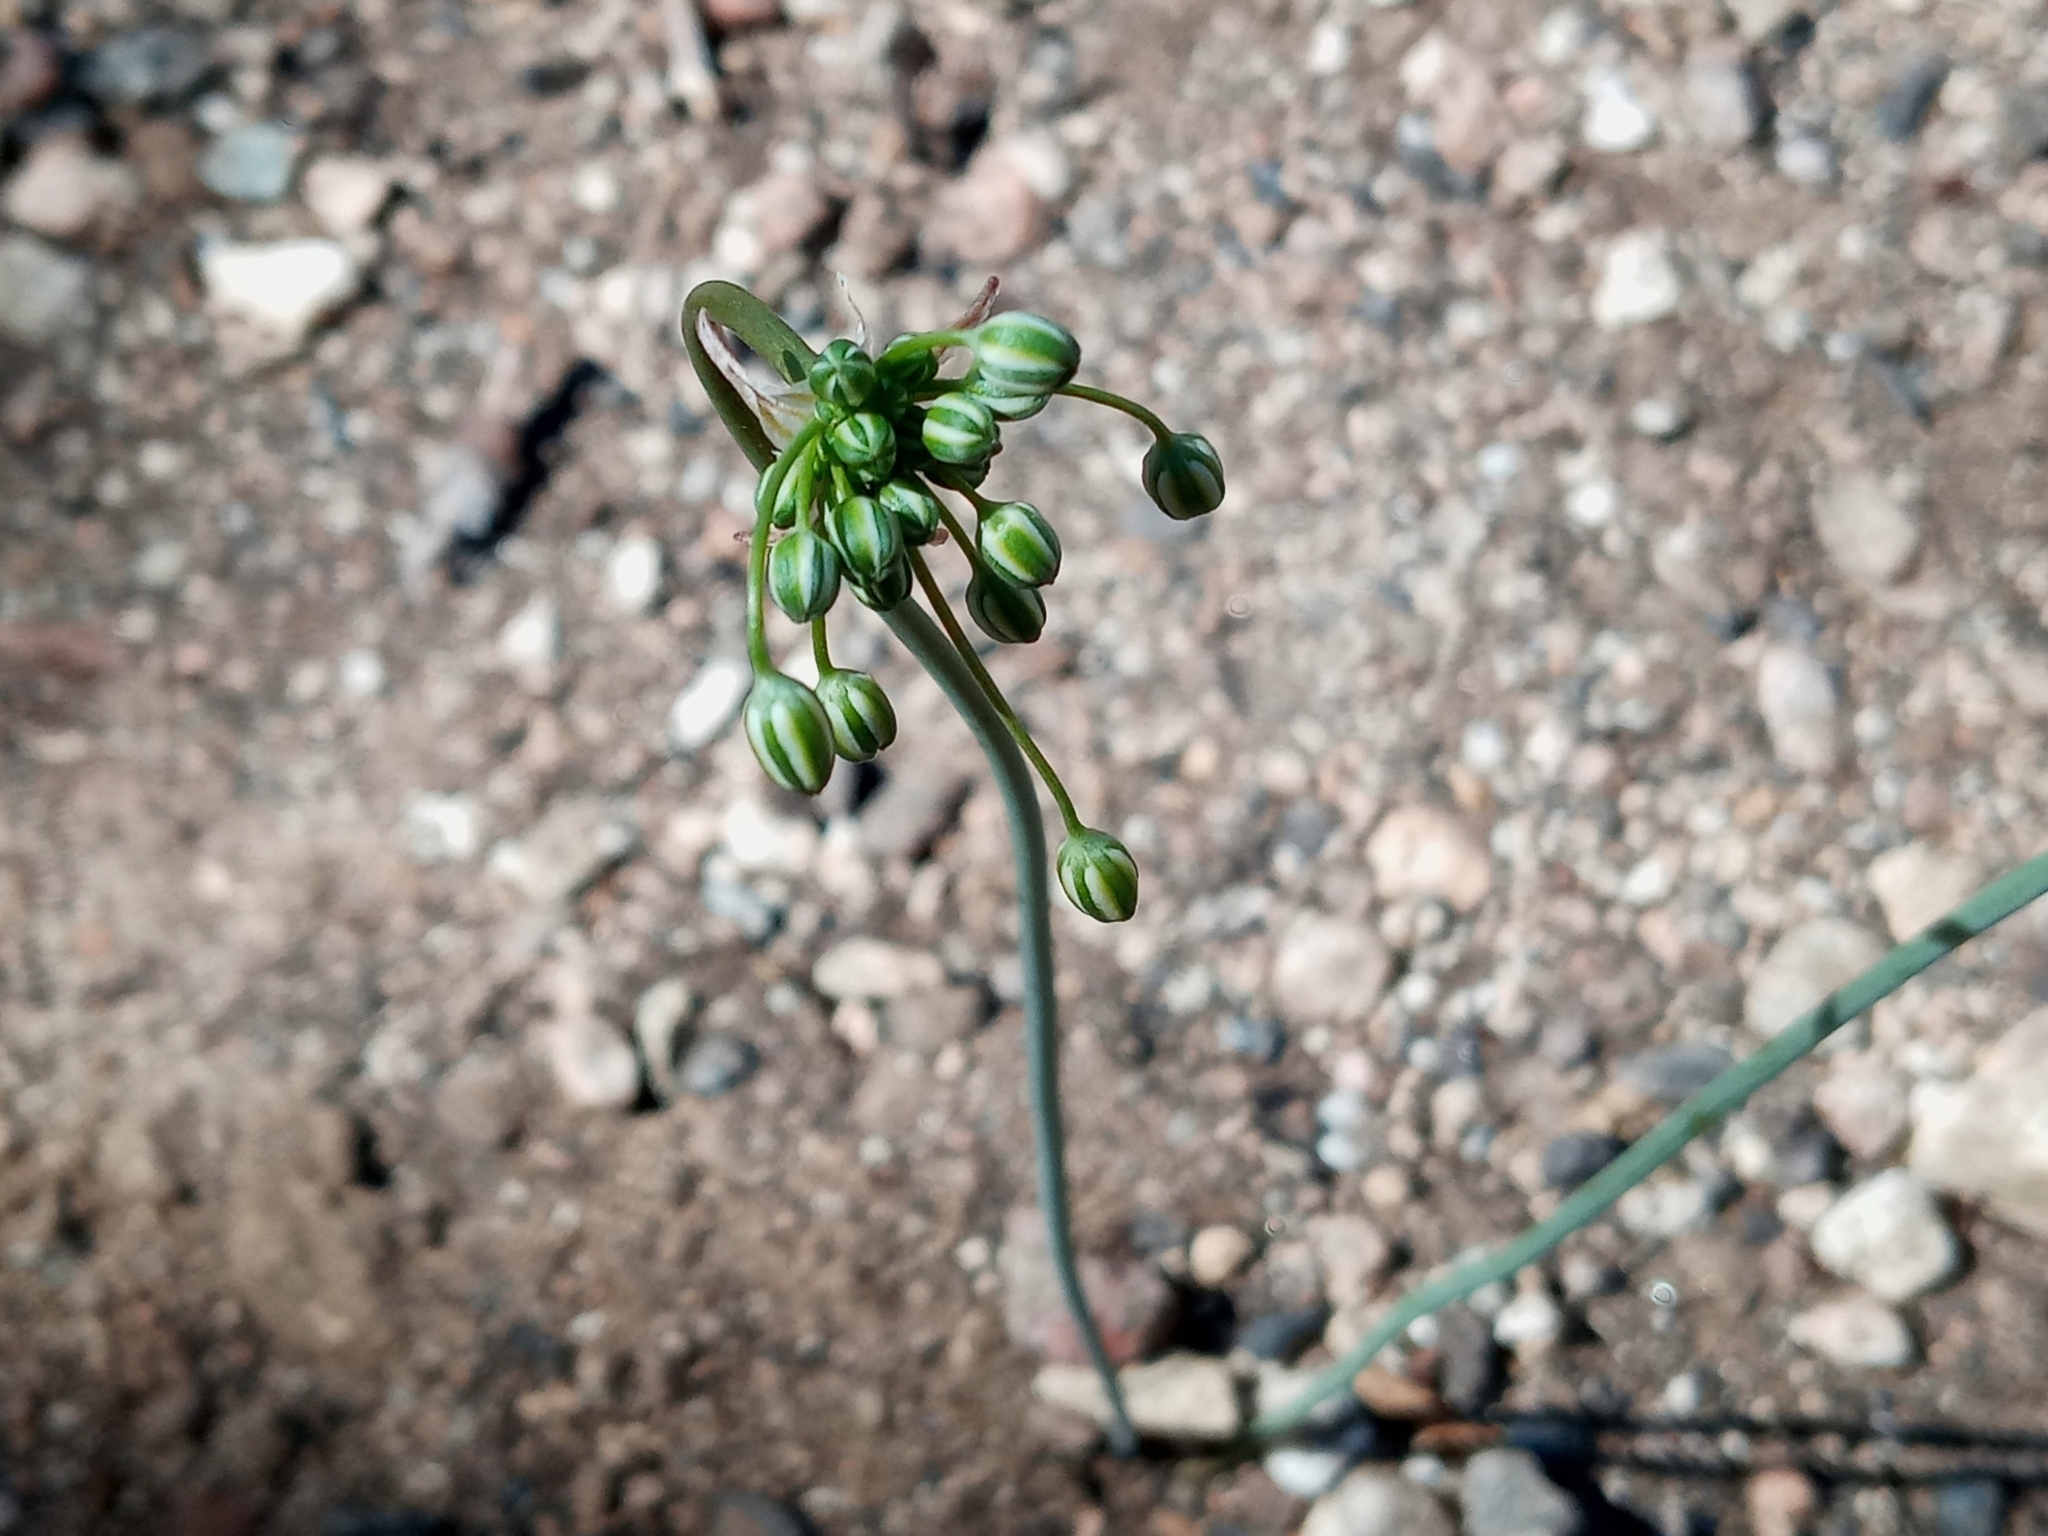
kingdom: Plantae
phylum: Tracheophyta
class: Liliopsida
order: Asparagales
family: Asparagaceae
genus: Muilla
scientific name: Muilla maritima
